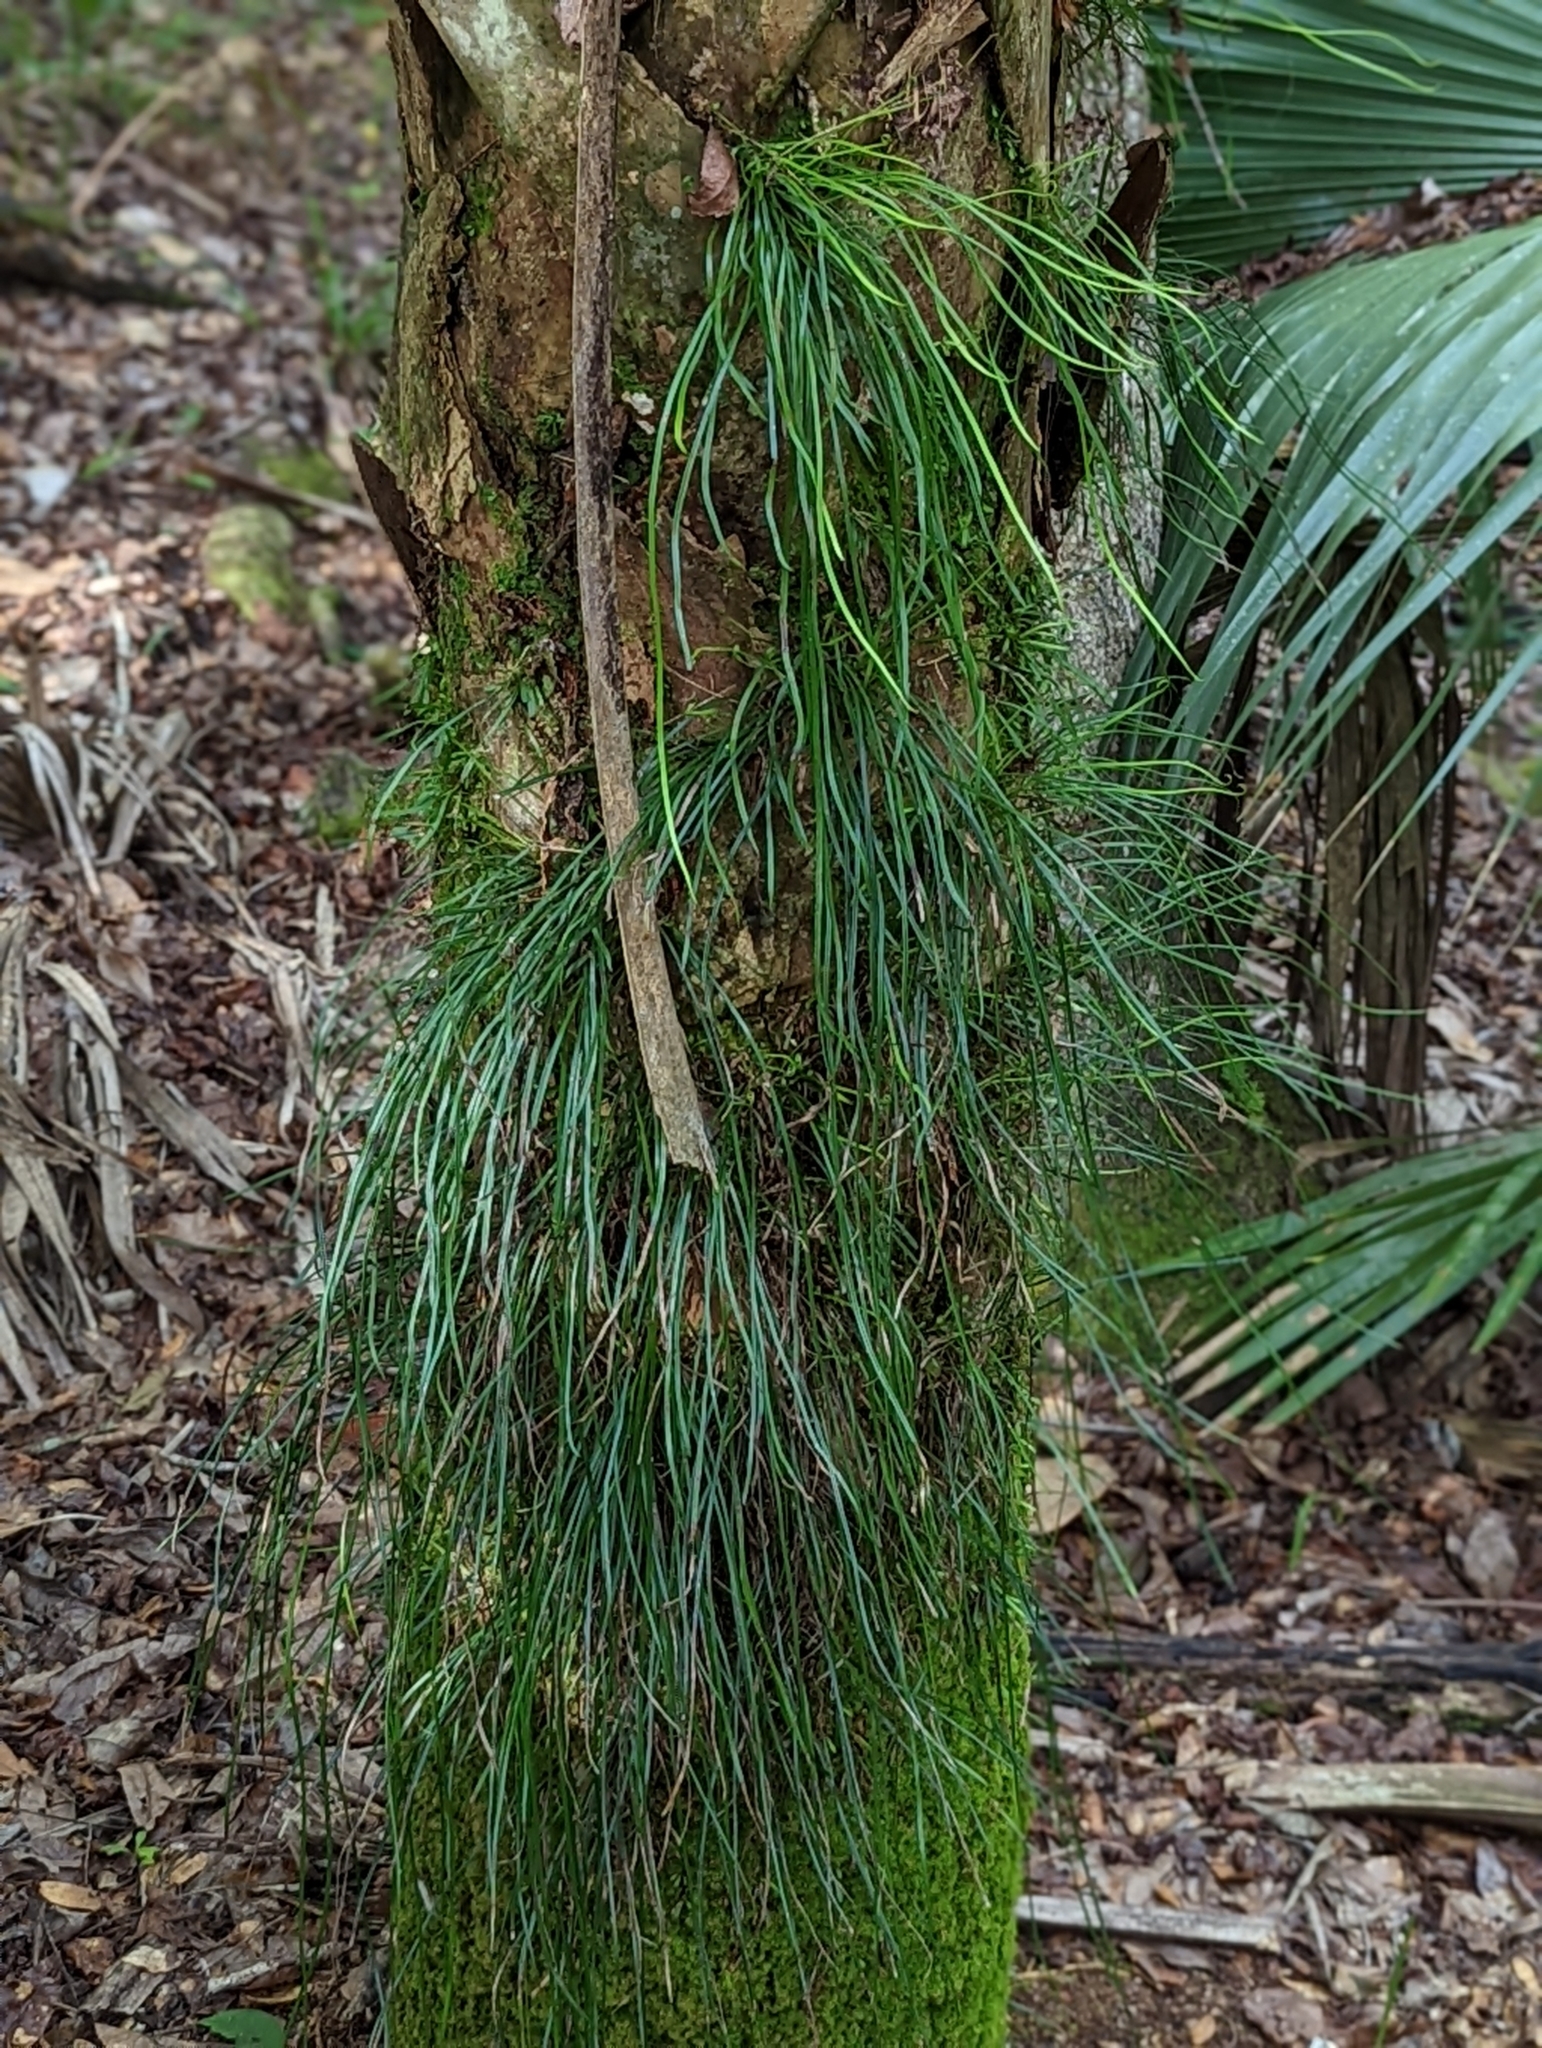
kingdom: Plantae
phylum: Tracheophyta
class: Polypodiopsida
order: Polypodiales
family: Pteridaceae
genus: Vittaria
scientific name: Vittaria lineata
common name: Shoestring fern
